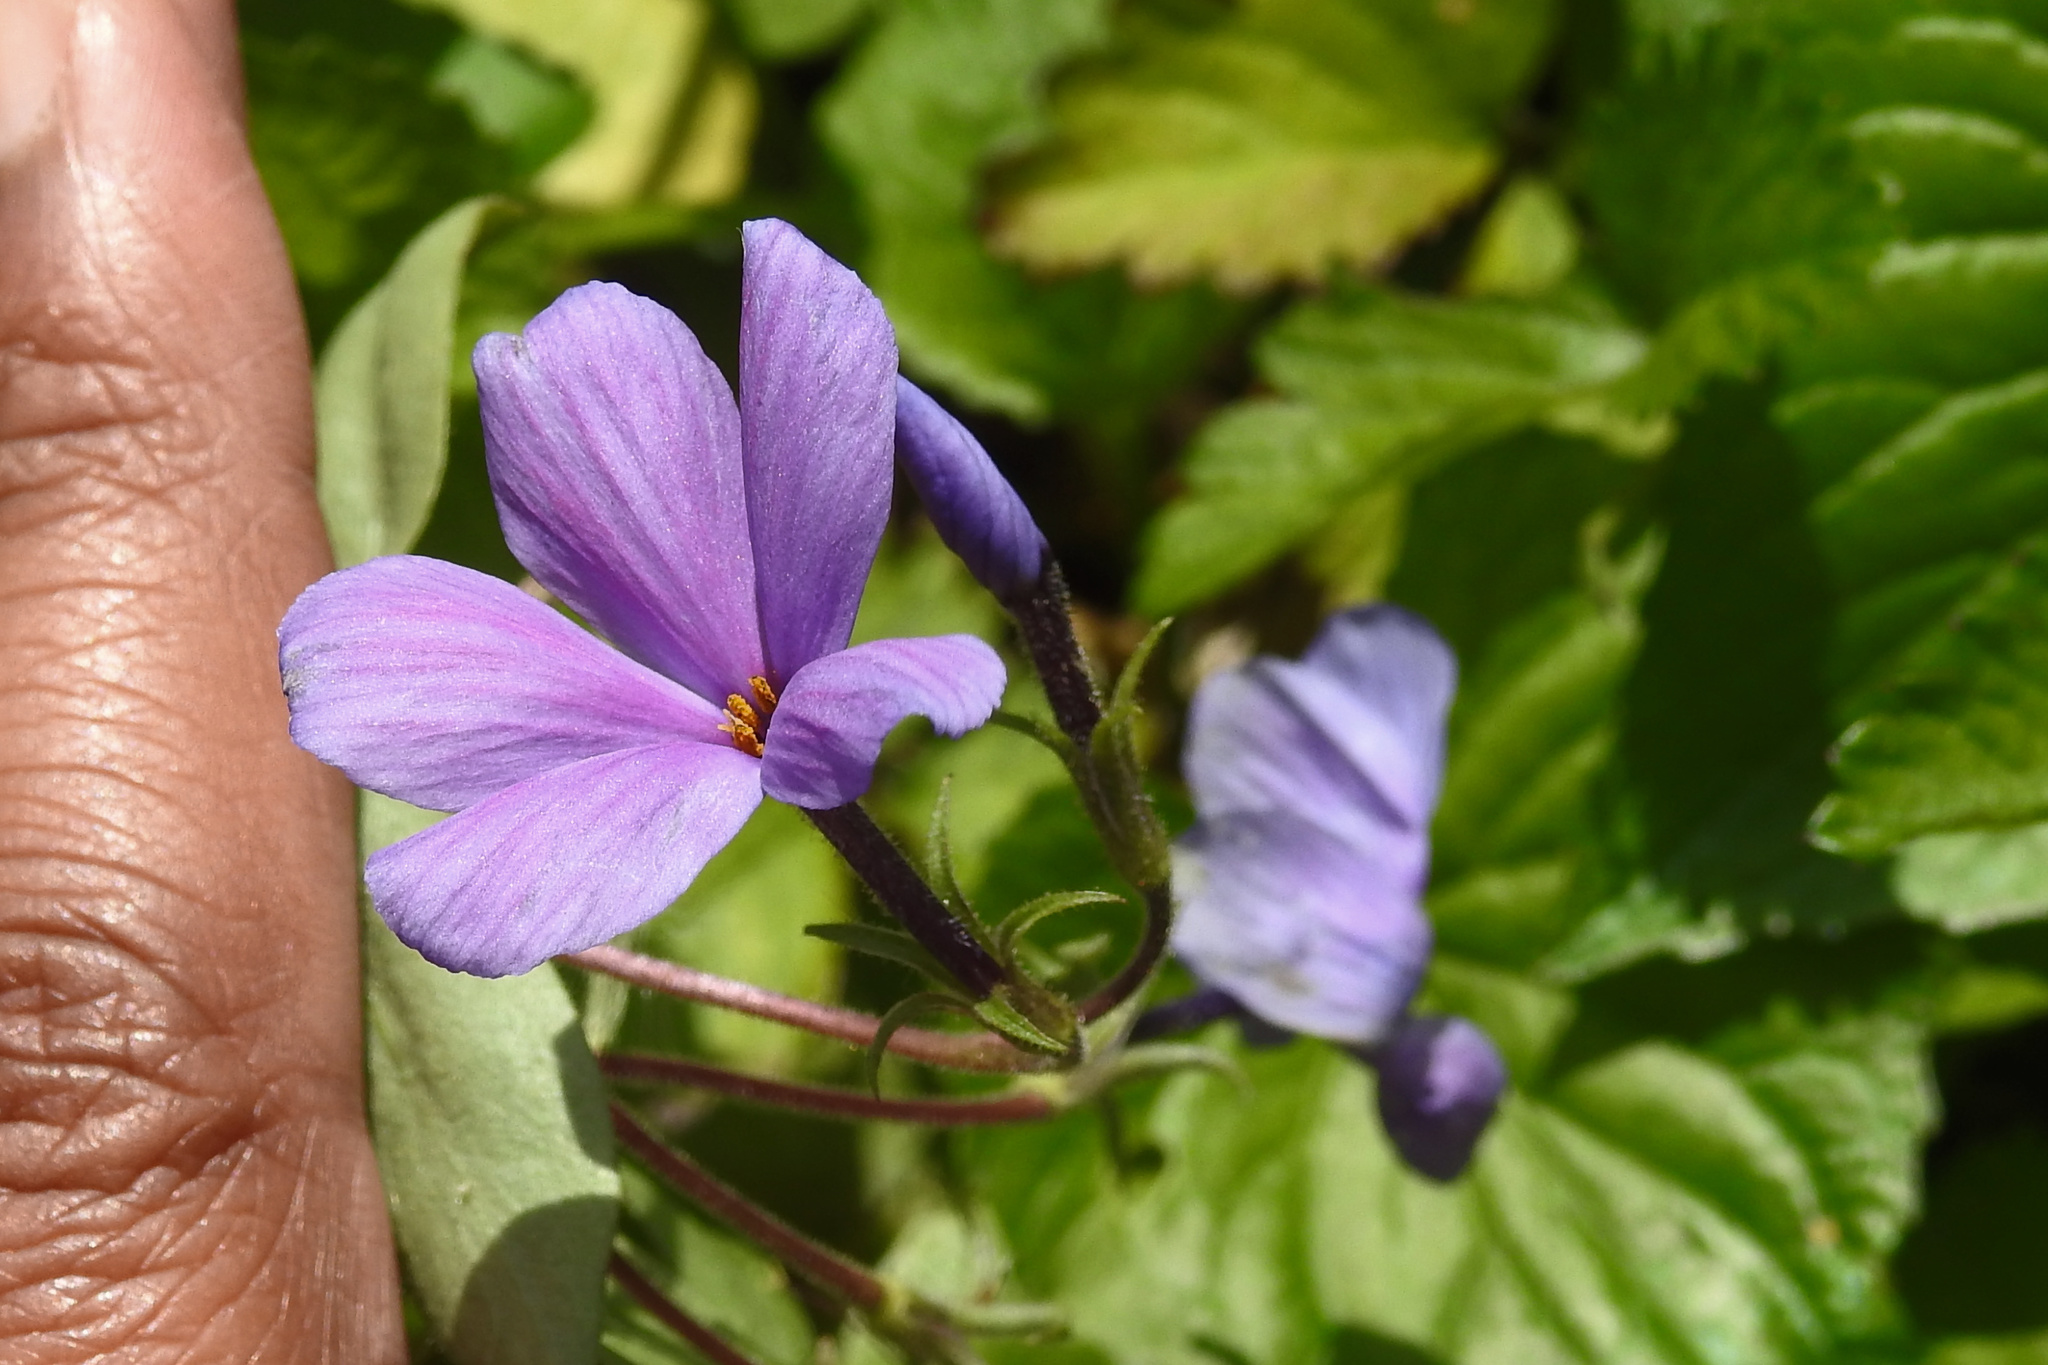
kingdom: Plantae
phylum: Tracheophyta
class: Magnoliopsida
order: Ericales
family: Polemoniaceae
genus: Phlox
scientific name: Phlox stolonifera
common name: Creeping phlox
